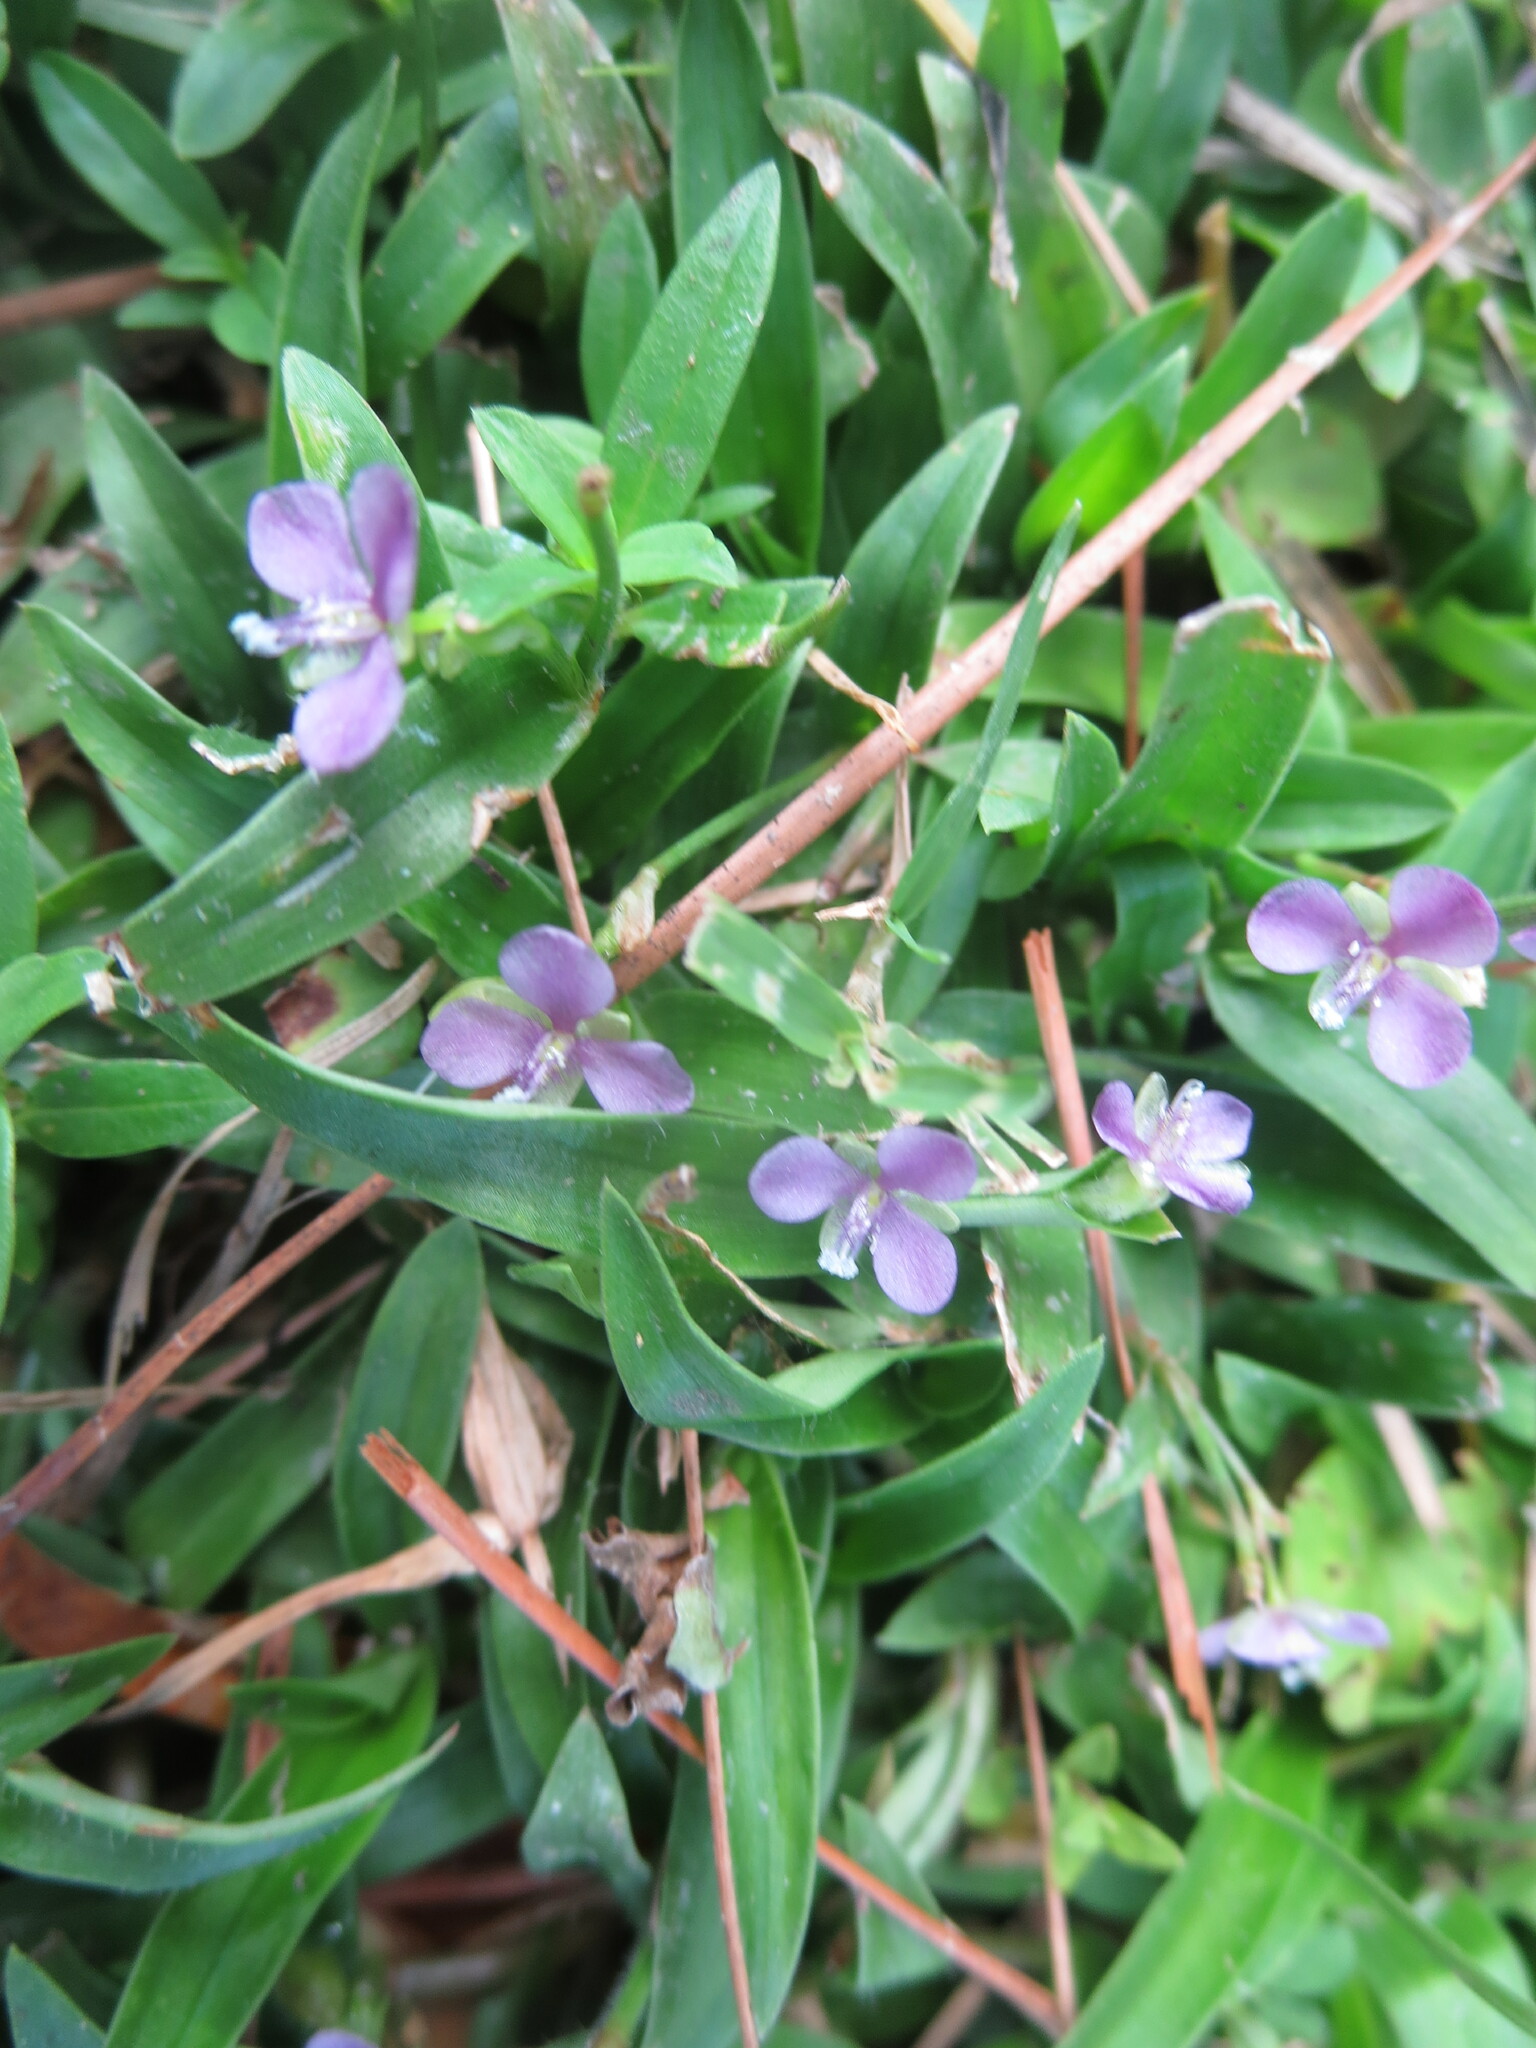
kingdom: Plantae
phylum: Tracheophyta
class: Liliopsida
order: Commelinales
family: Commelinaceae
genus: Murdannia
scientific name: Murdannia nudiflora
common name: Nakedstem dewflower
